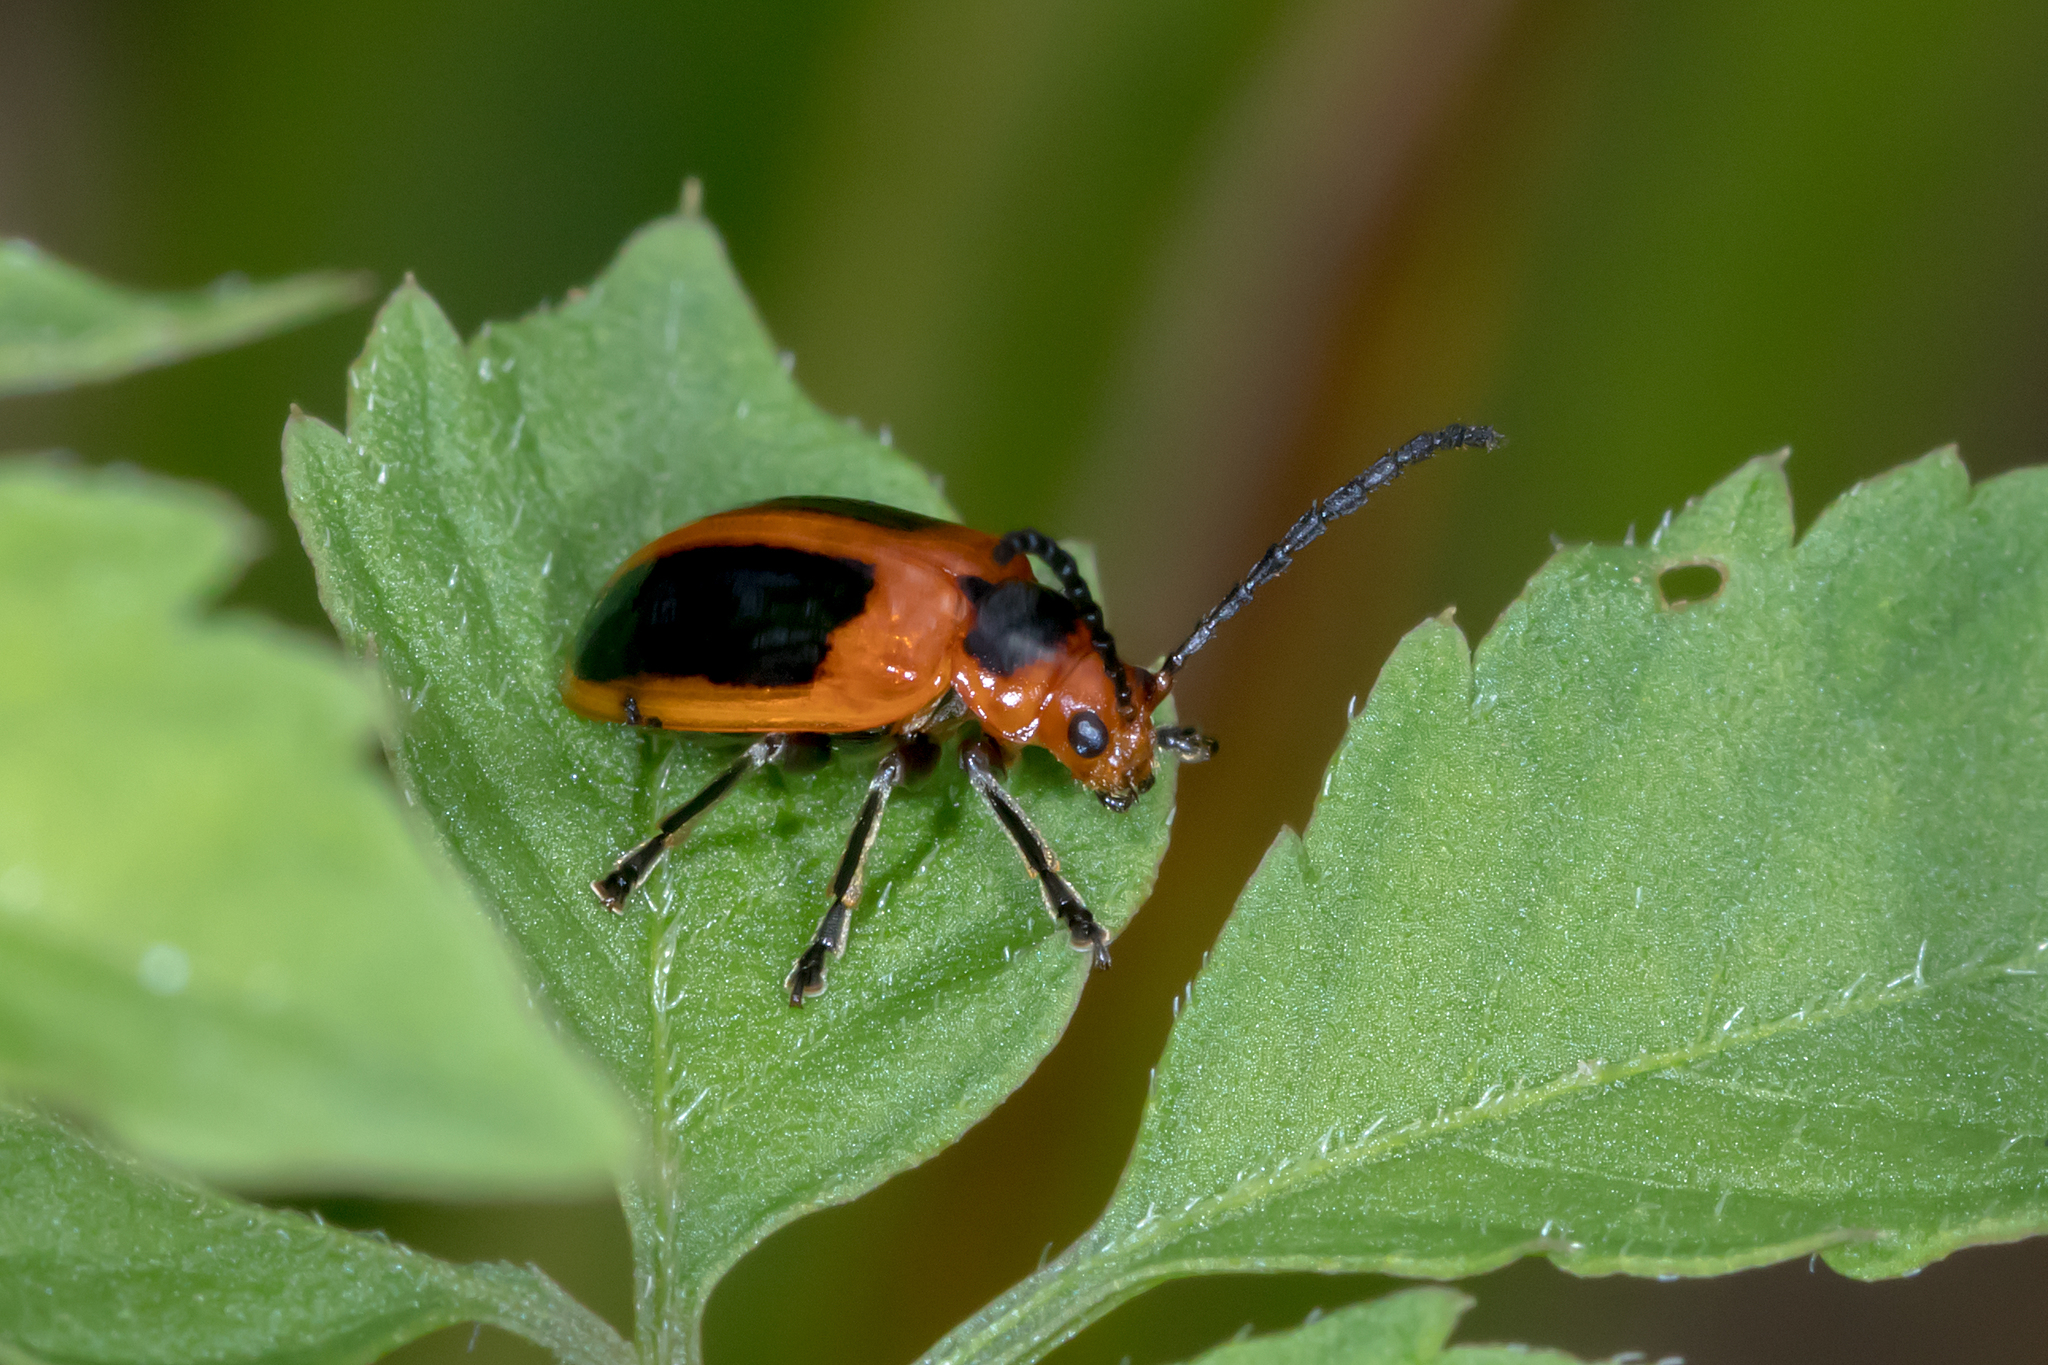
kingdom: Animalia
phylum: Arthropoda
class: Insecta
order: Coleoptera
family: Chrysomelidae
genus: Oides
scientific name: Oides
